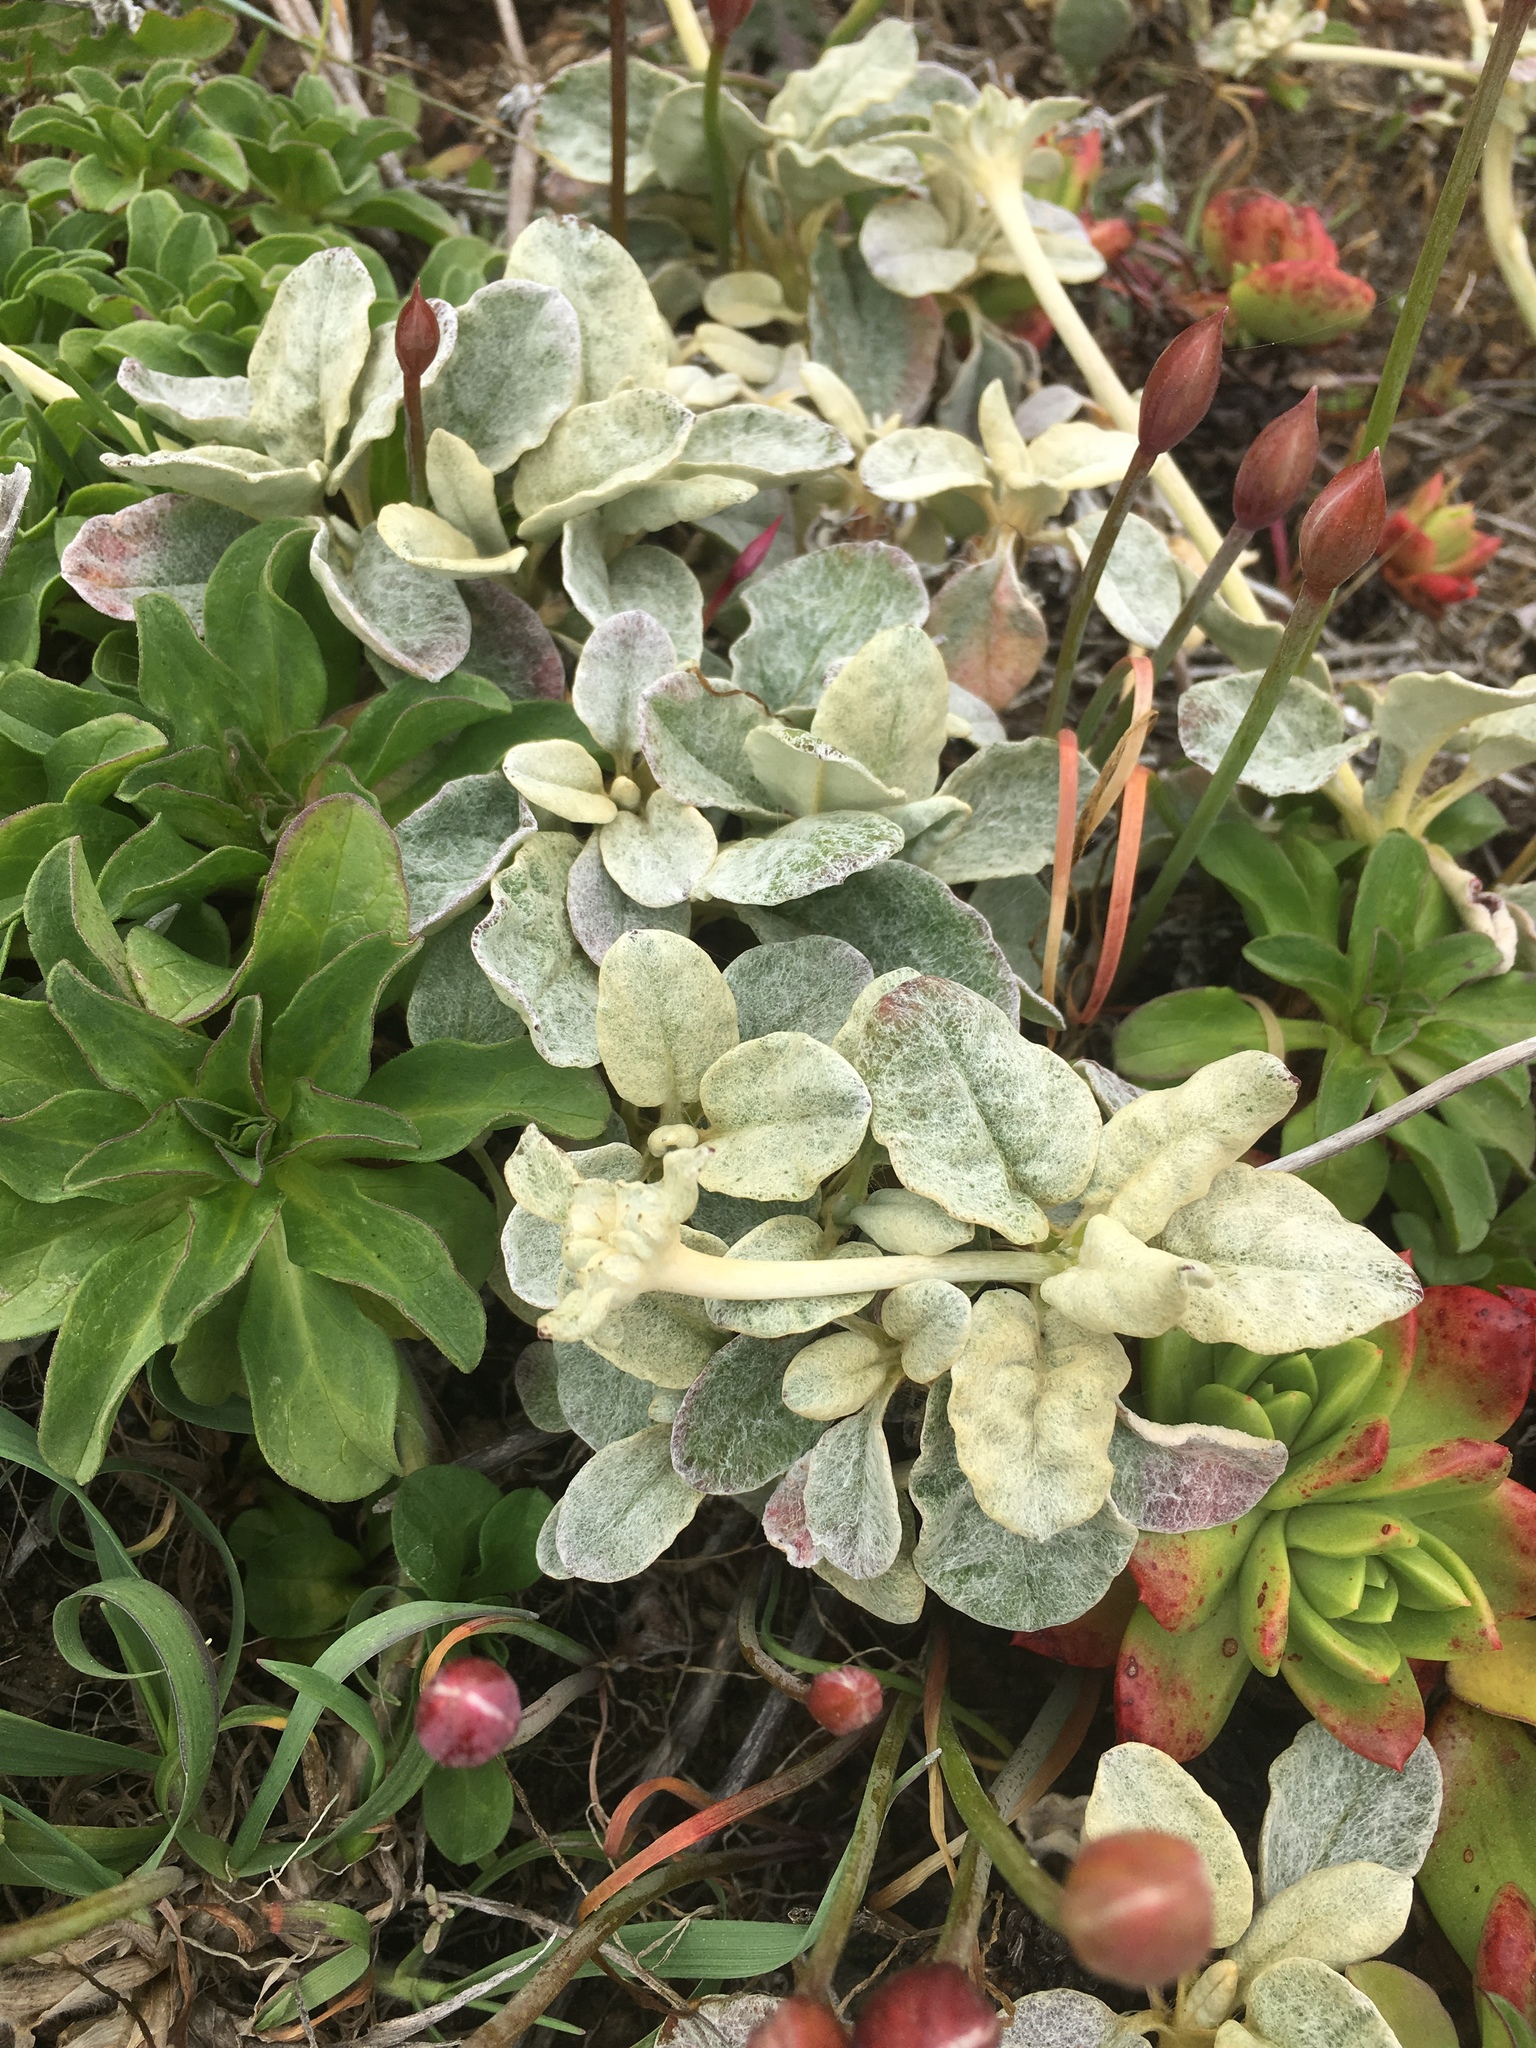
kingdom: Plantae
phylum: Tracheophyta
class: Magnoliopsida
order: Caryophyllales
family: Polygonaceae
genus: Eriogonum
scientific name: Eriogonum latifolium
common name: Seaside wild buckwheat
